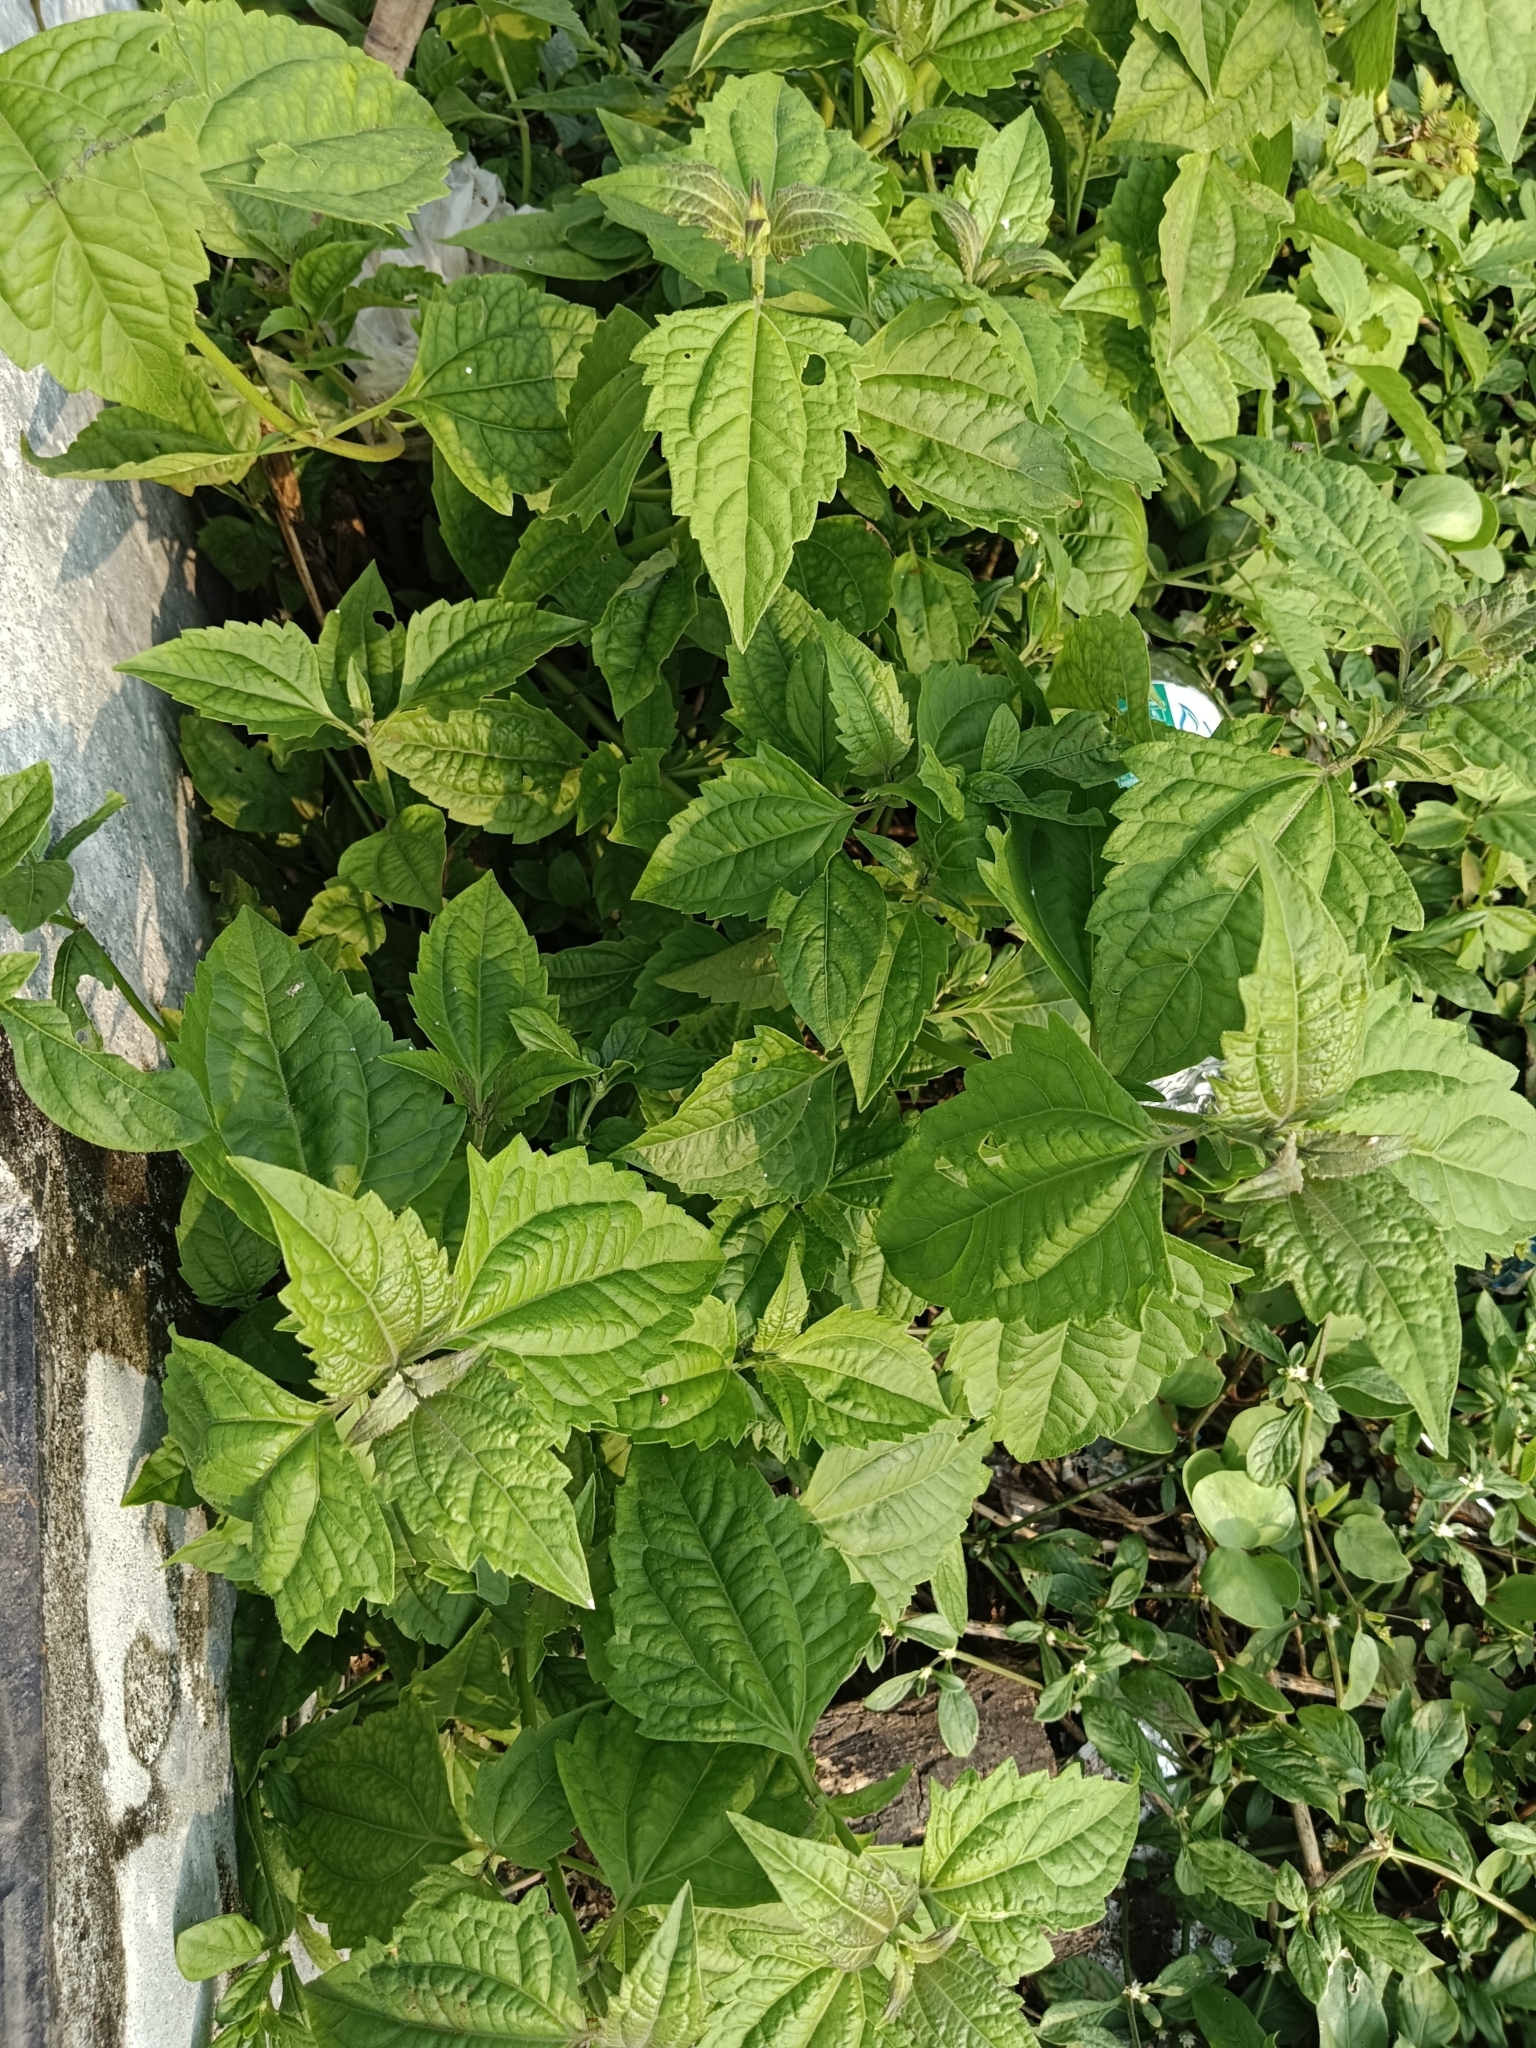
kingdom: Plantae
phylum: Tracheophyta
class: Magnoliopsida
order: Asterales
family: Asteraceae
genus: Chromolaena
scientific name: Chromolaena odorata
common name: Siamweed
